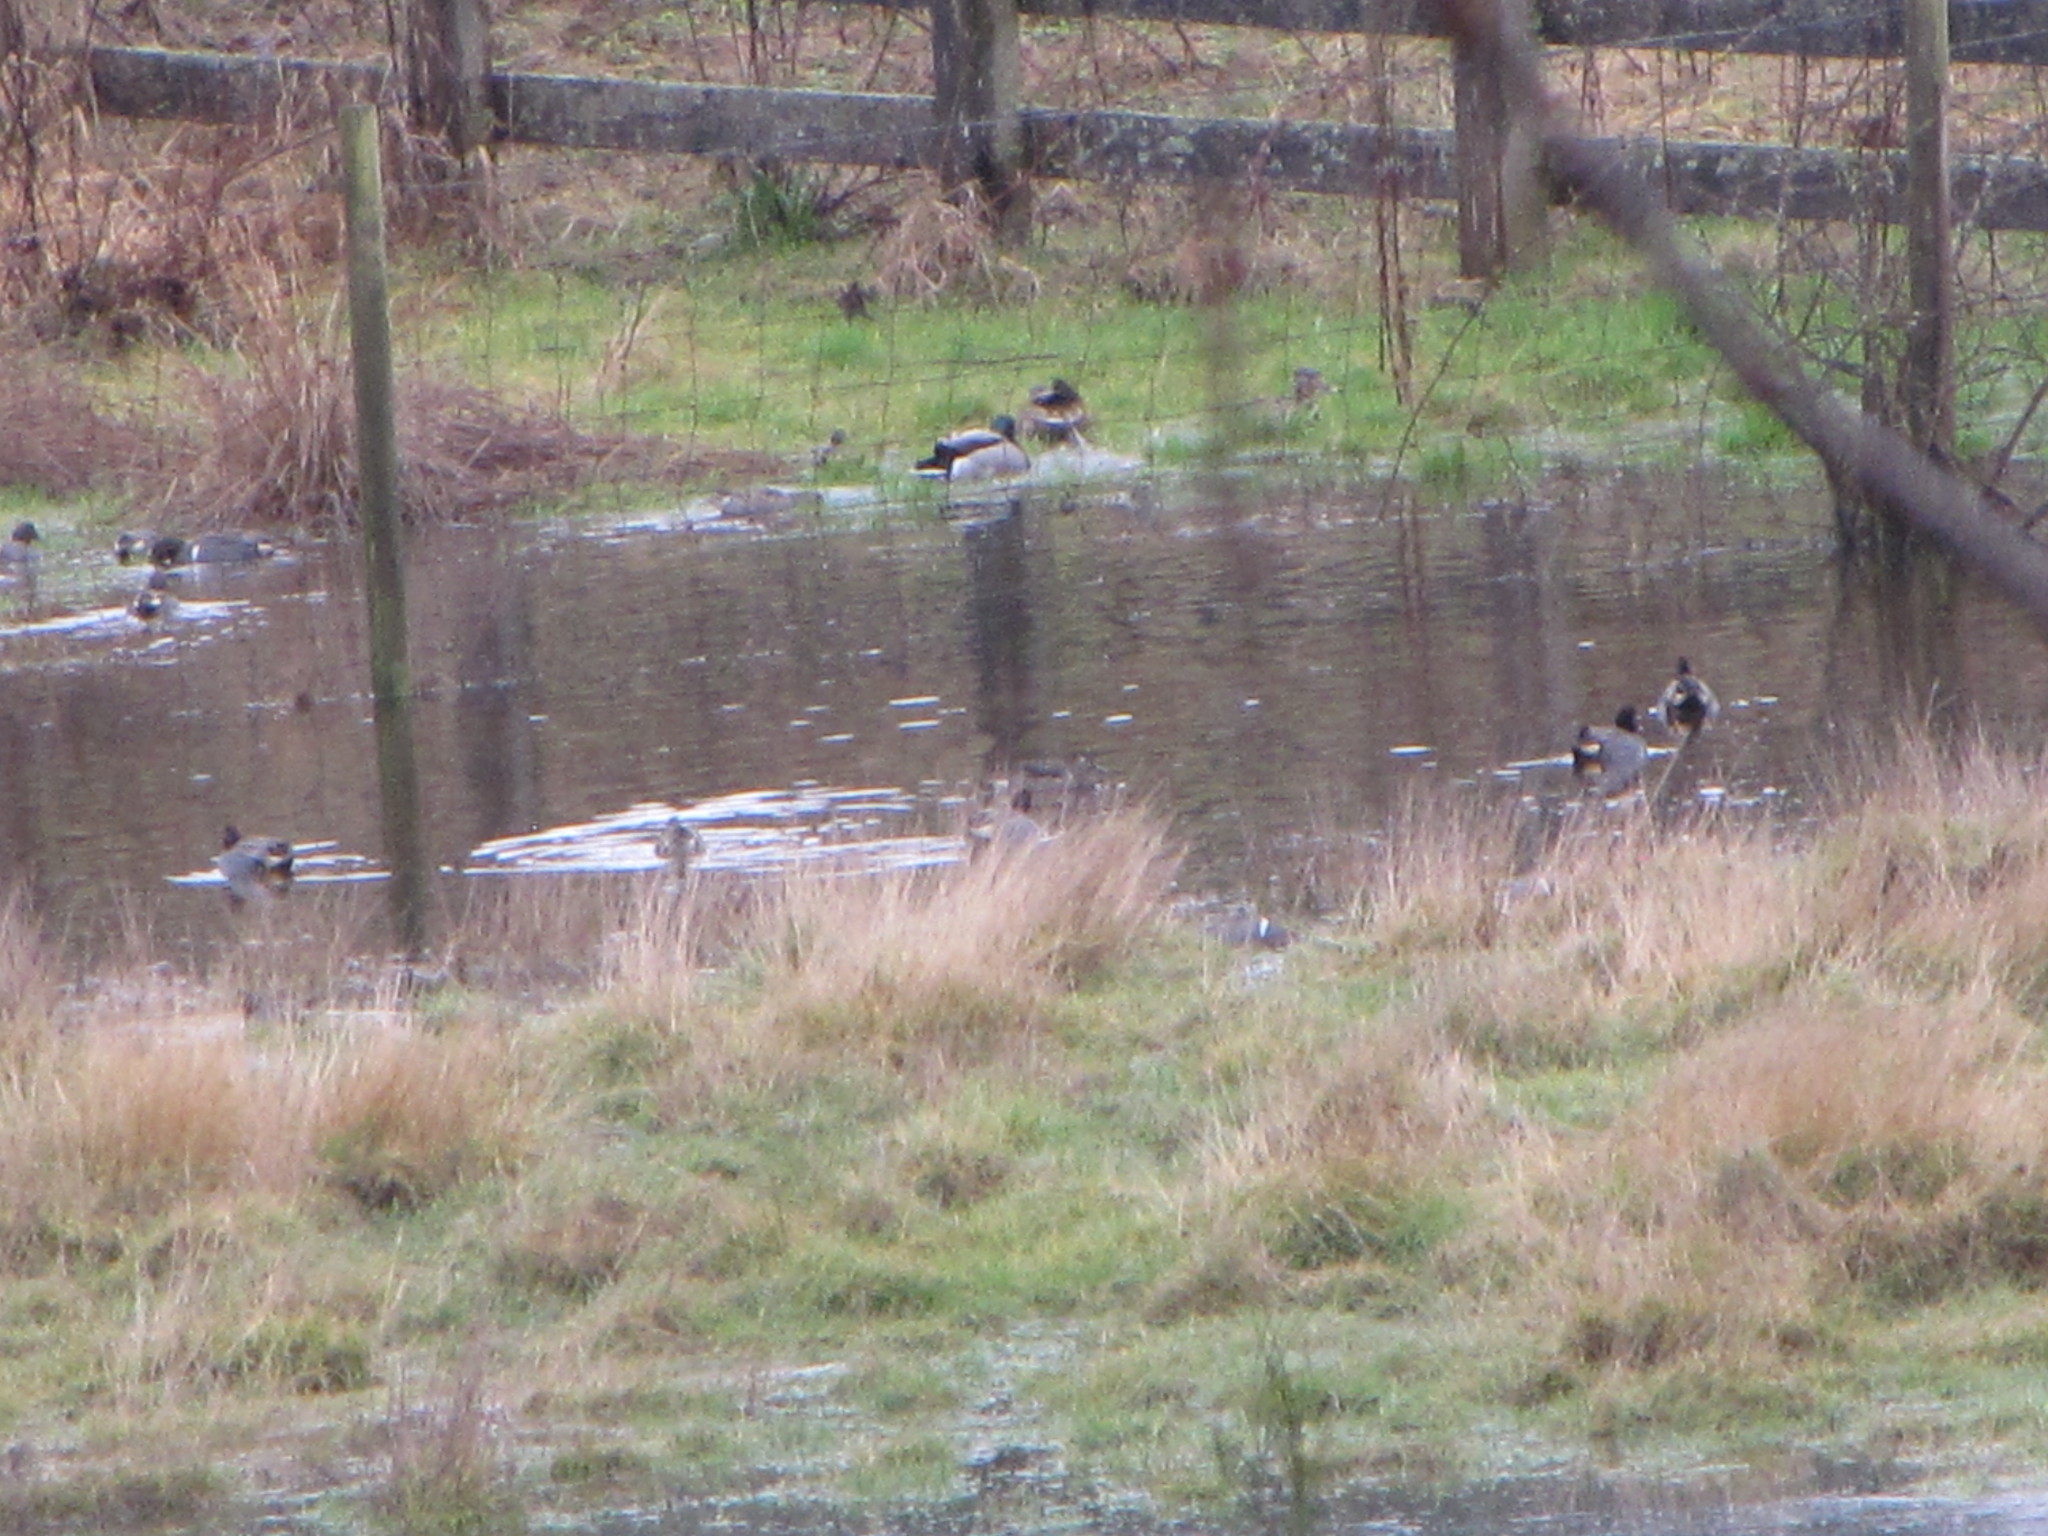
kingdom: Animalia
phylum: Chordata
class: Aves
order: Anseriformes
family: Anatidae
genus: Anas
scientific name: Anas crecca
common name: Eurasian teal
